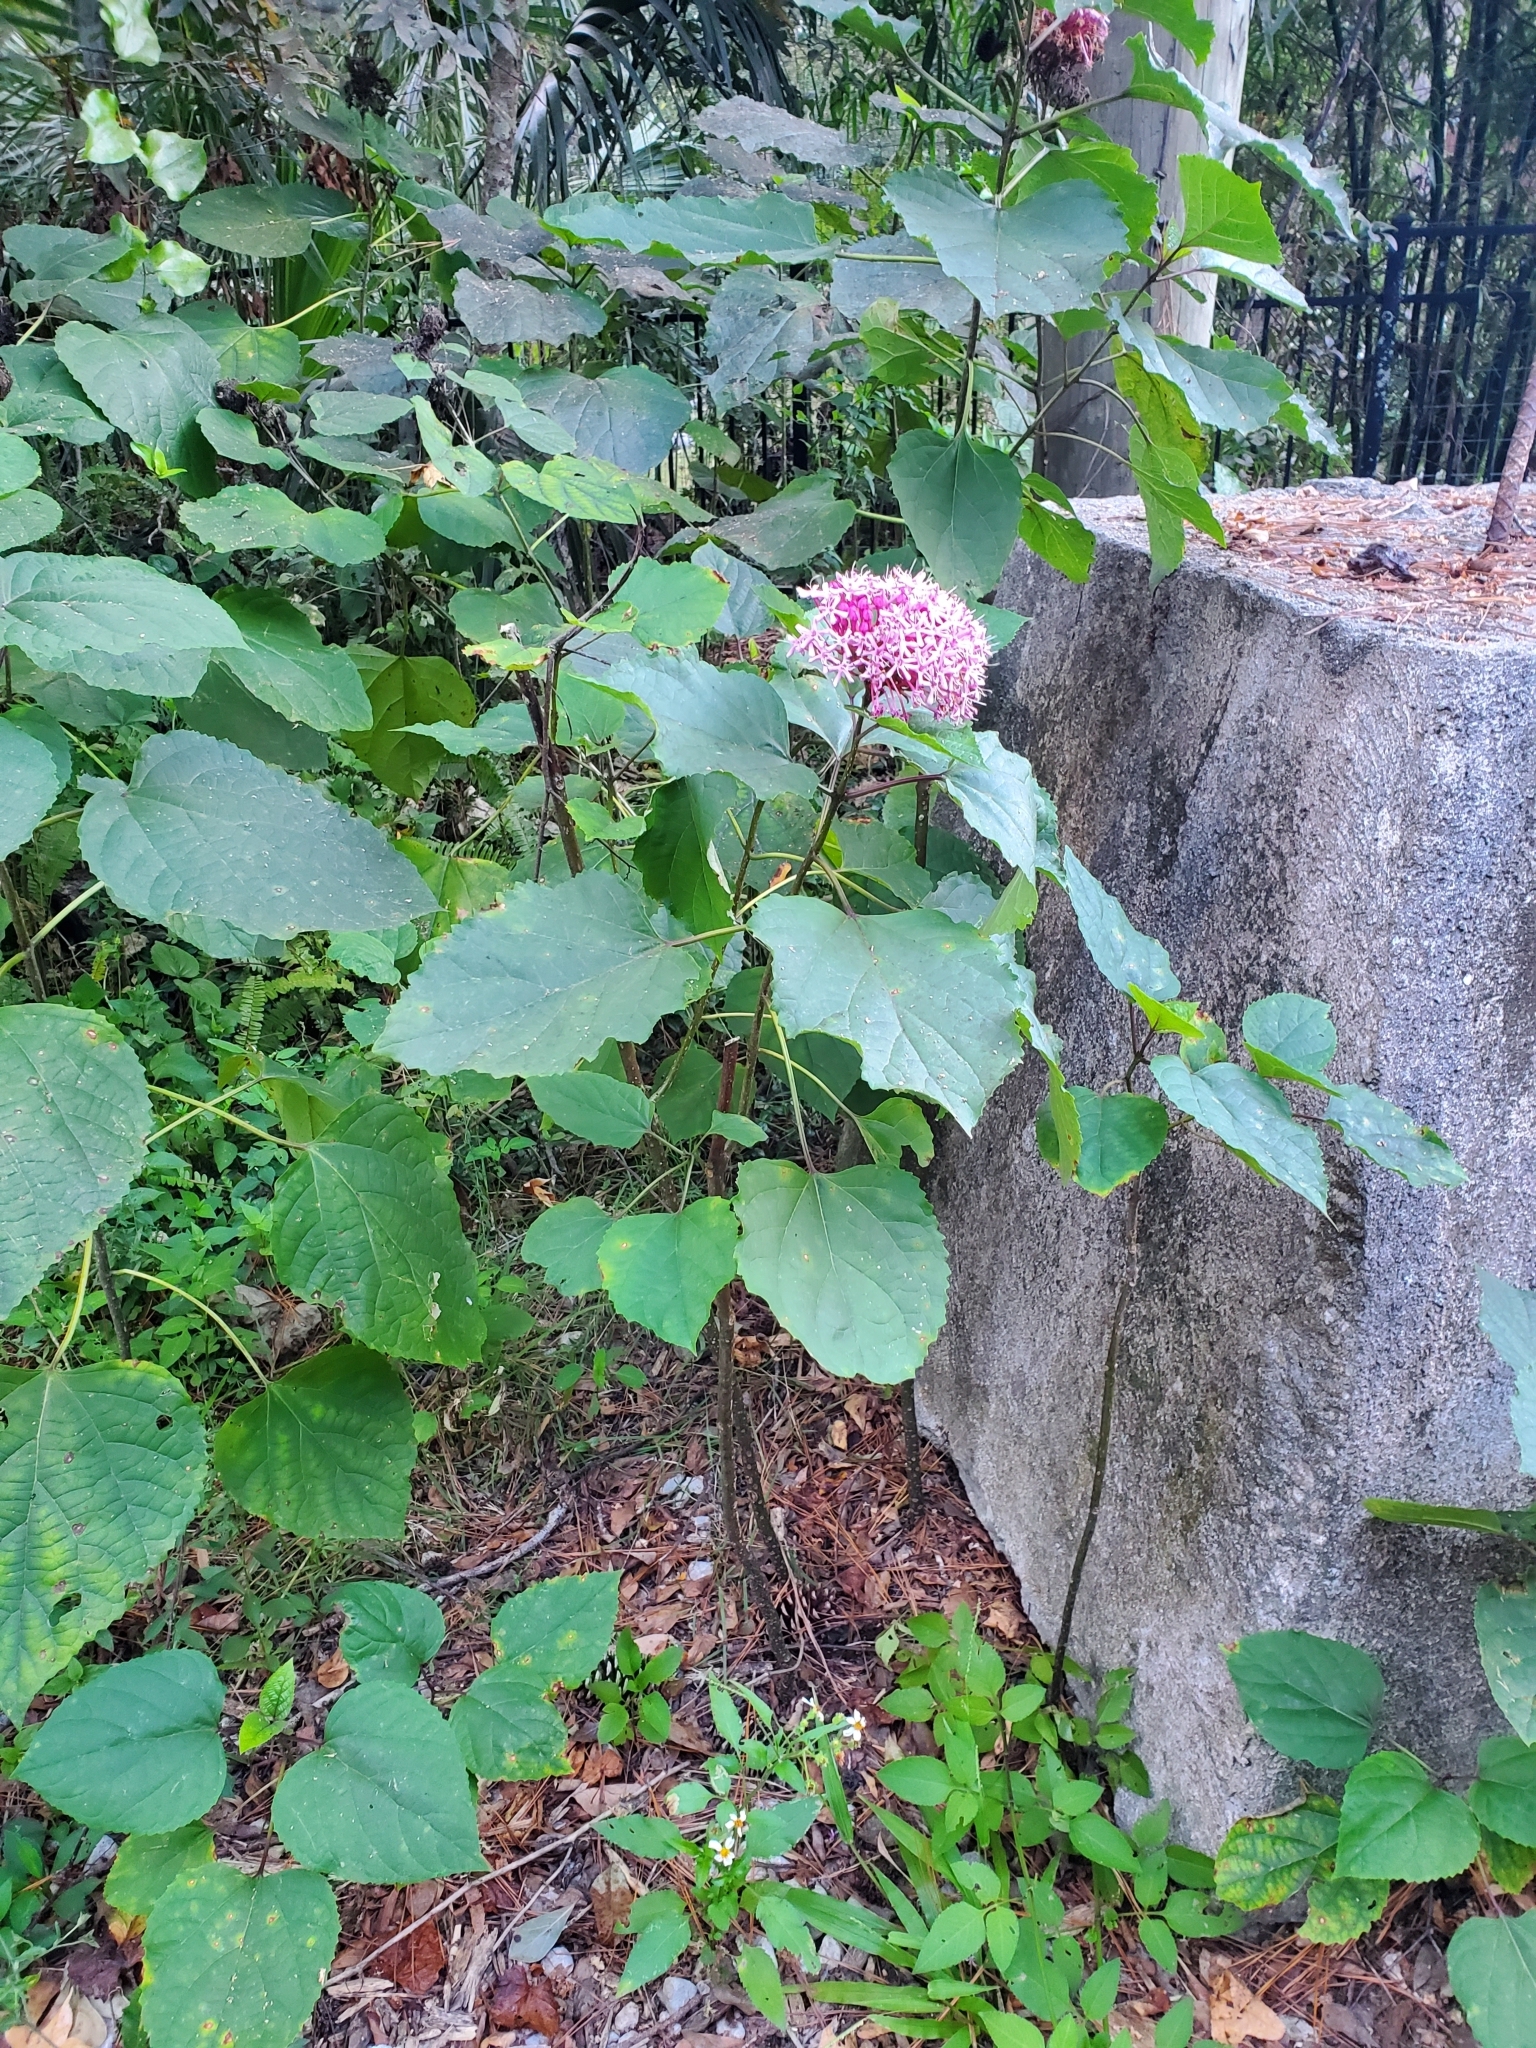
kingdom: Plantae
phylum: Tracheophyta
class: Magnoliopsida
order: Lamiales
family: Lamiaceae
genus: Clerodendrum
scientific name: Clerodendrum bungei
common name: Rose glorybower
